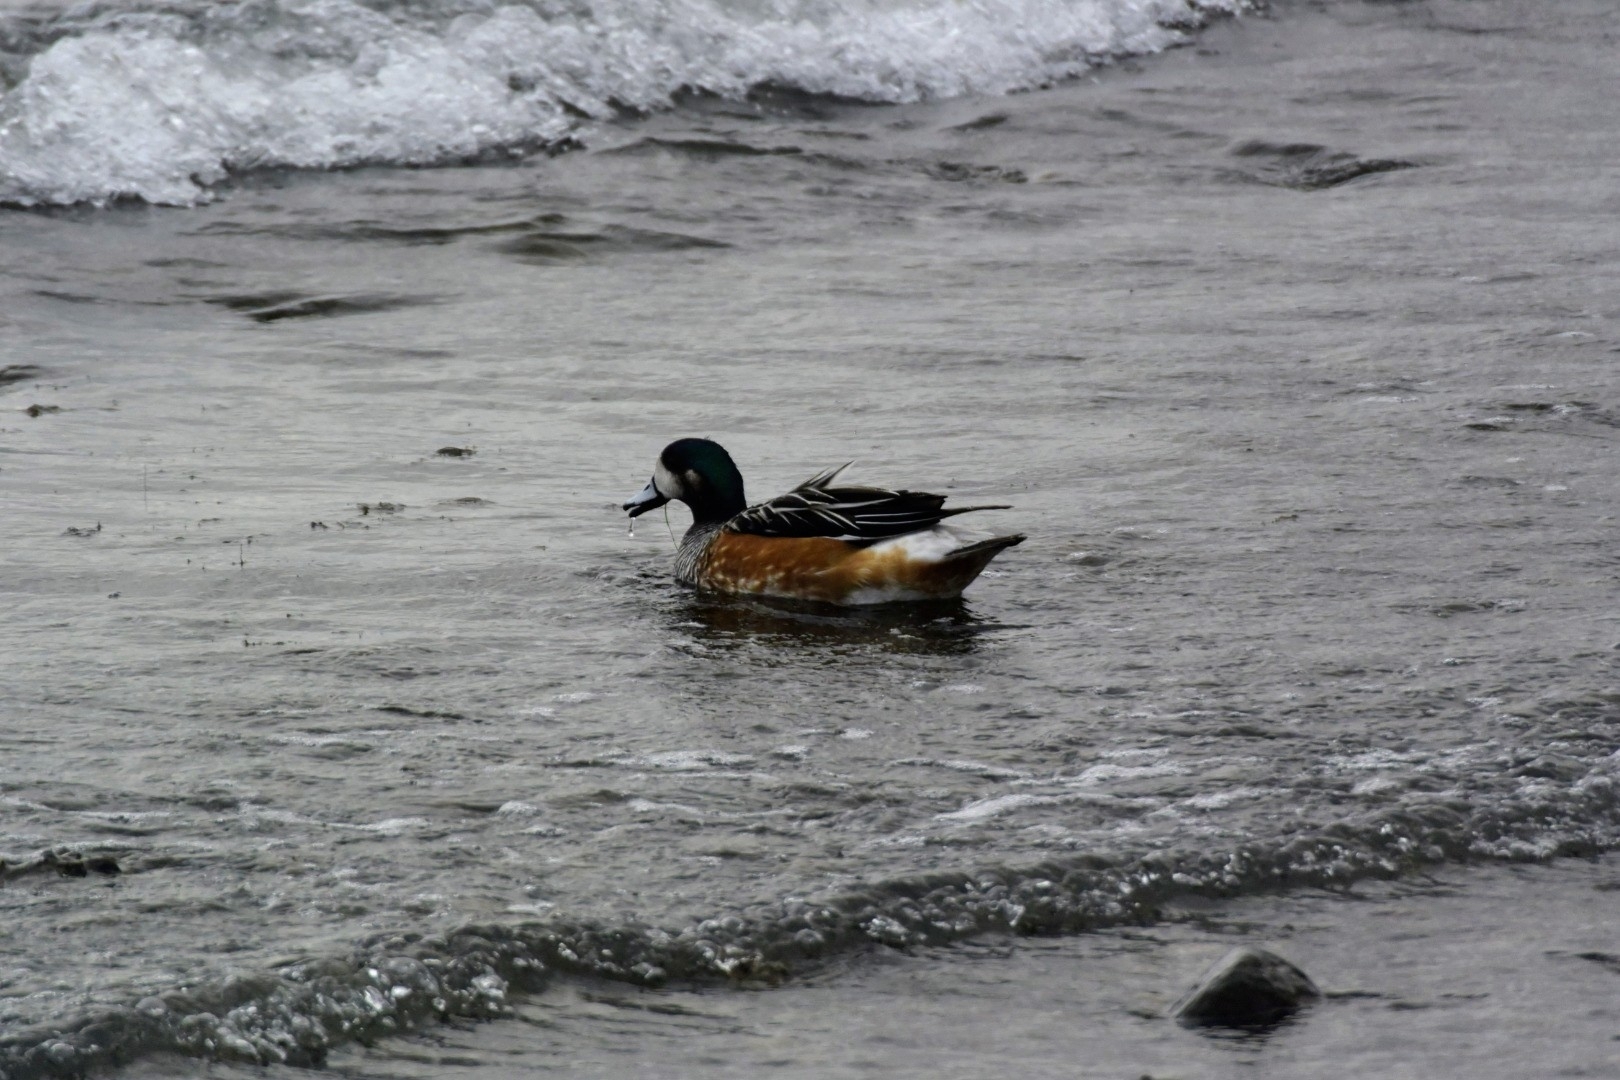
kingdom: Animalia
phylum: Chordata
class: Aves
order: Anseriformes
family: Anatidae
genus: Mareca
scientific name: Mareca sibilatrix
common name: Chiloe wigeon
